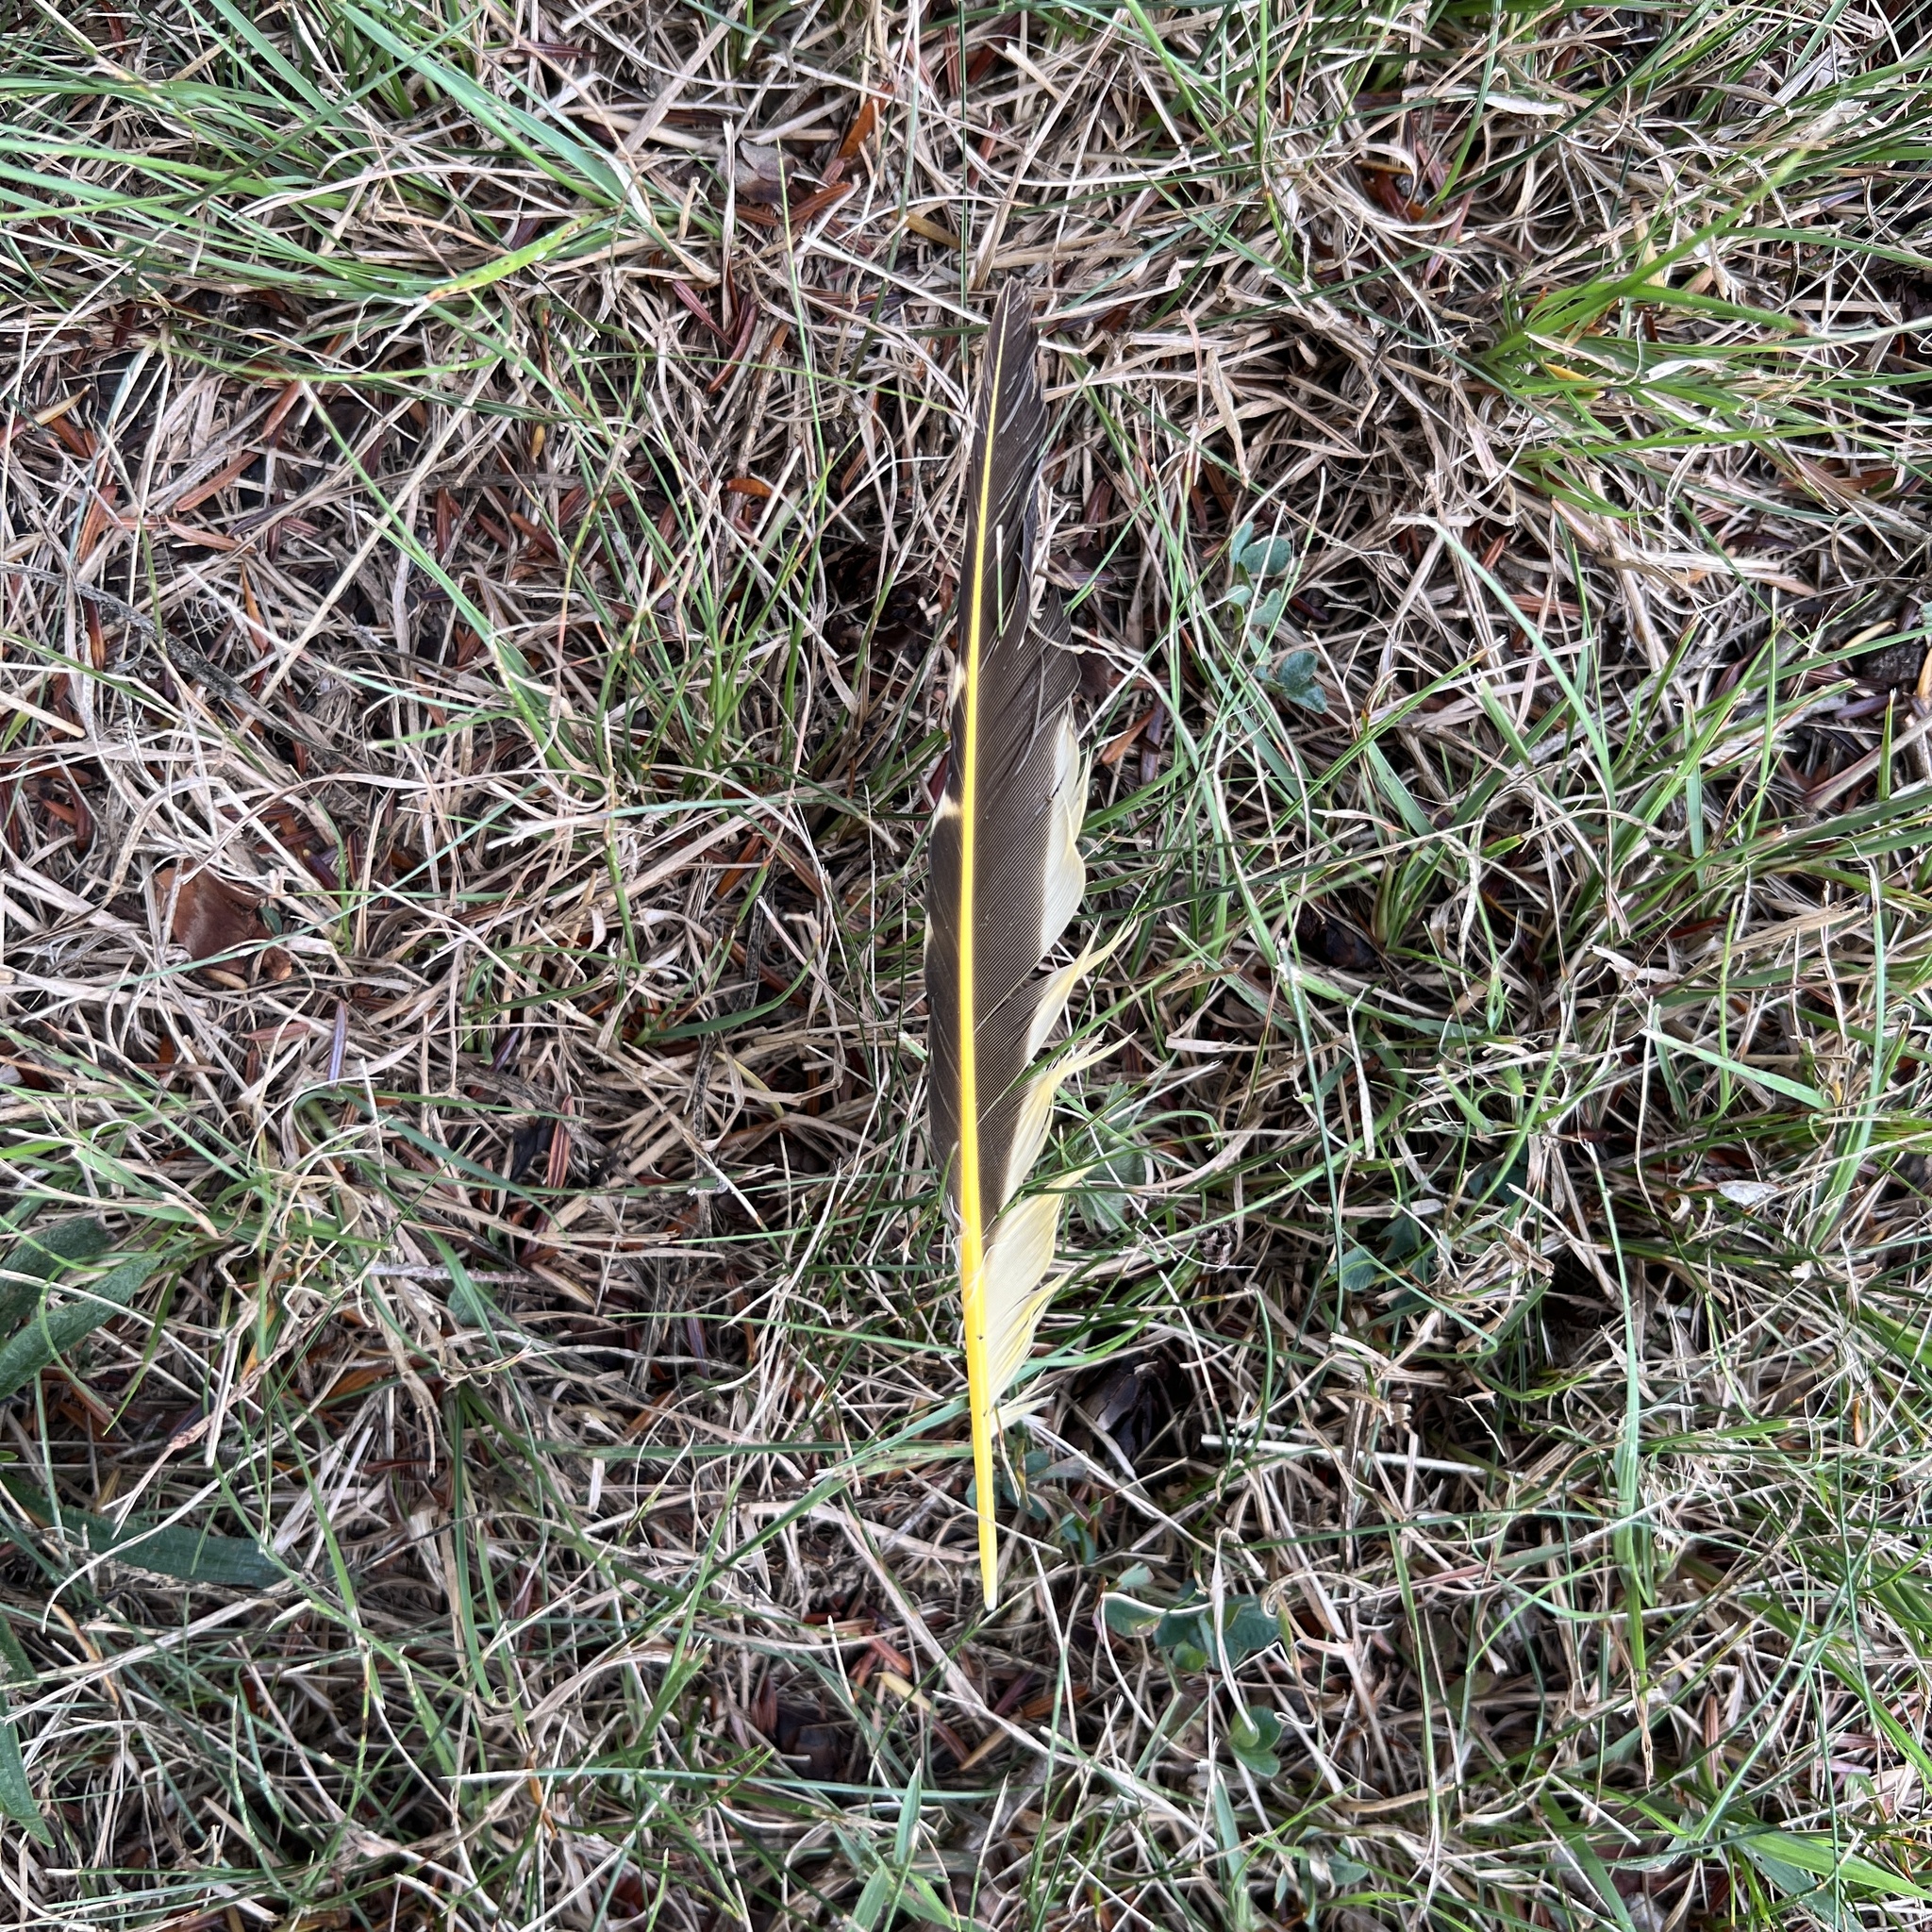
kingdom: Animalia
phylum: Chordata
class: Aves
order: Piciformes
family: Picidae
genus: Colaptes
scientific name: Colaptes auratus
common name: Northern flicker
